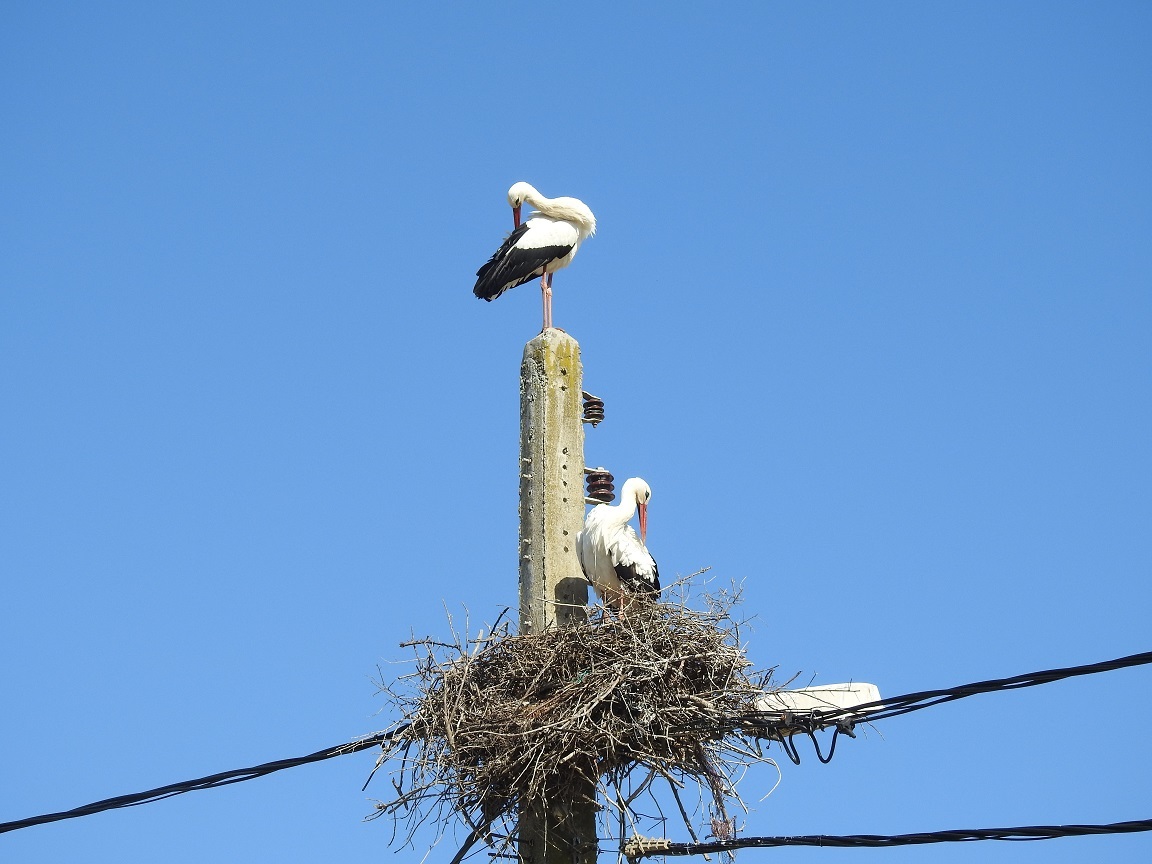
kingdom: Animalia
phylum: Chordata
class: Aves
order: Ciconiiformes
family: Ciconiidae
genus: Ciconia
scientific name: Ciconia ciconia
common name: White stork
